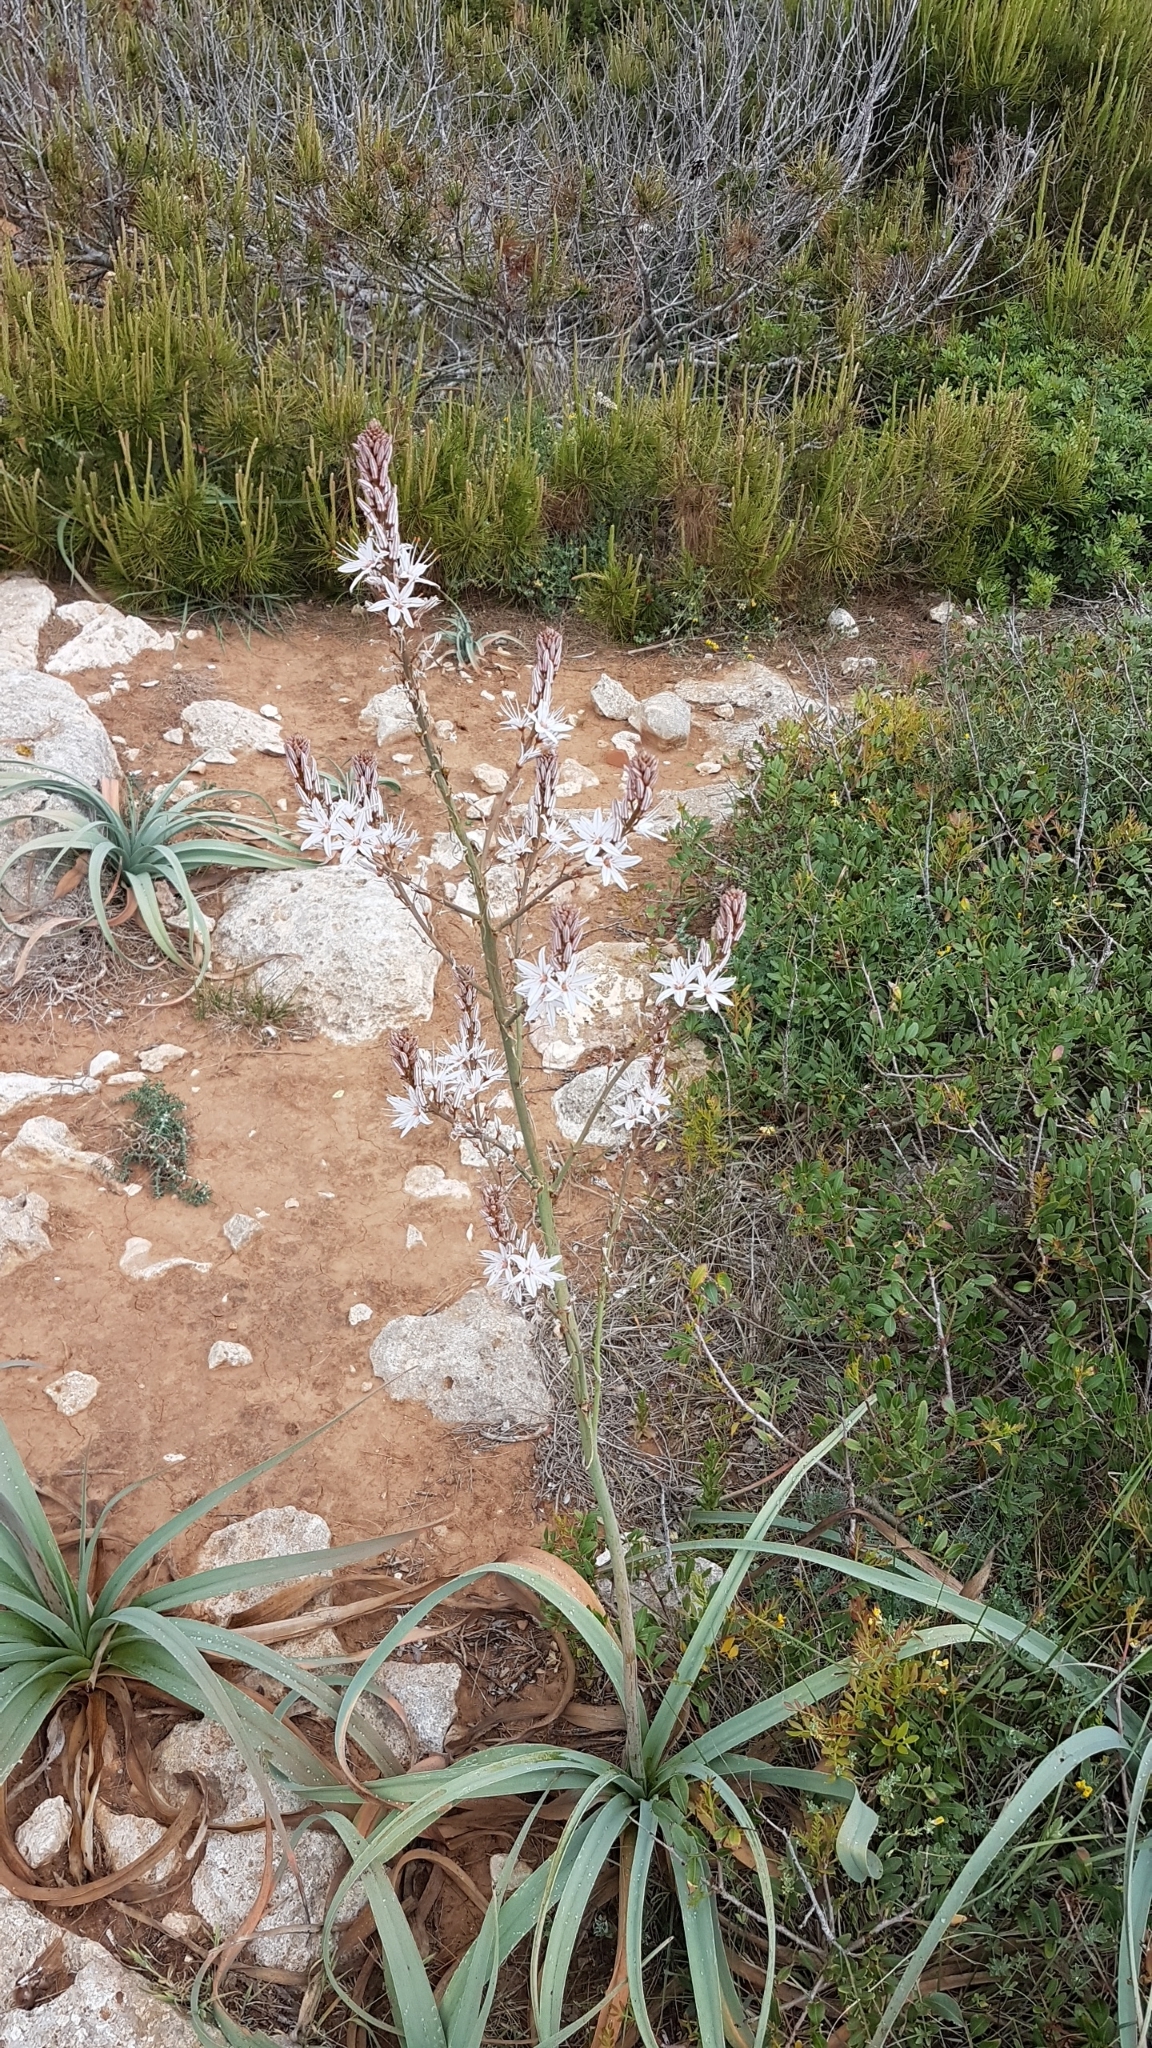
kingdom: Plantae
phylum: Tracheophyta
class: Liliopsida
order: Asparagales
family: Asphodelaceae
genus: Asphodelus
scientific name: Asphodelus ramosus
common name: Silverrod
